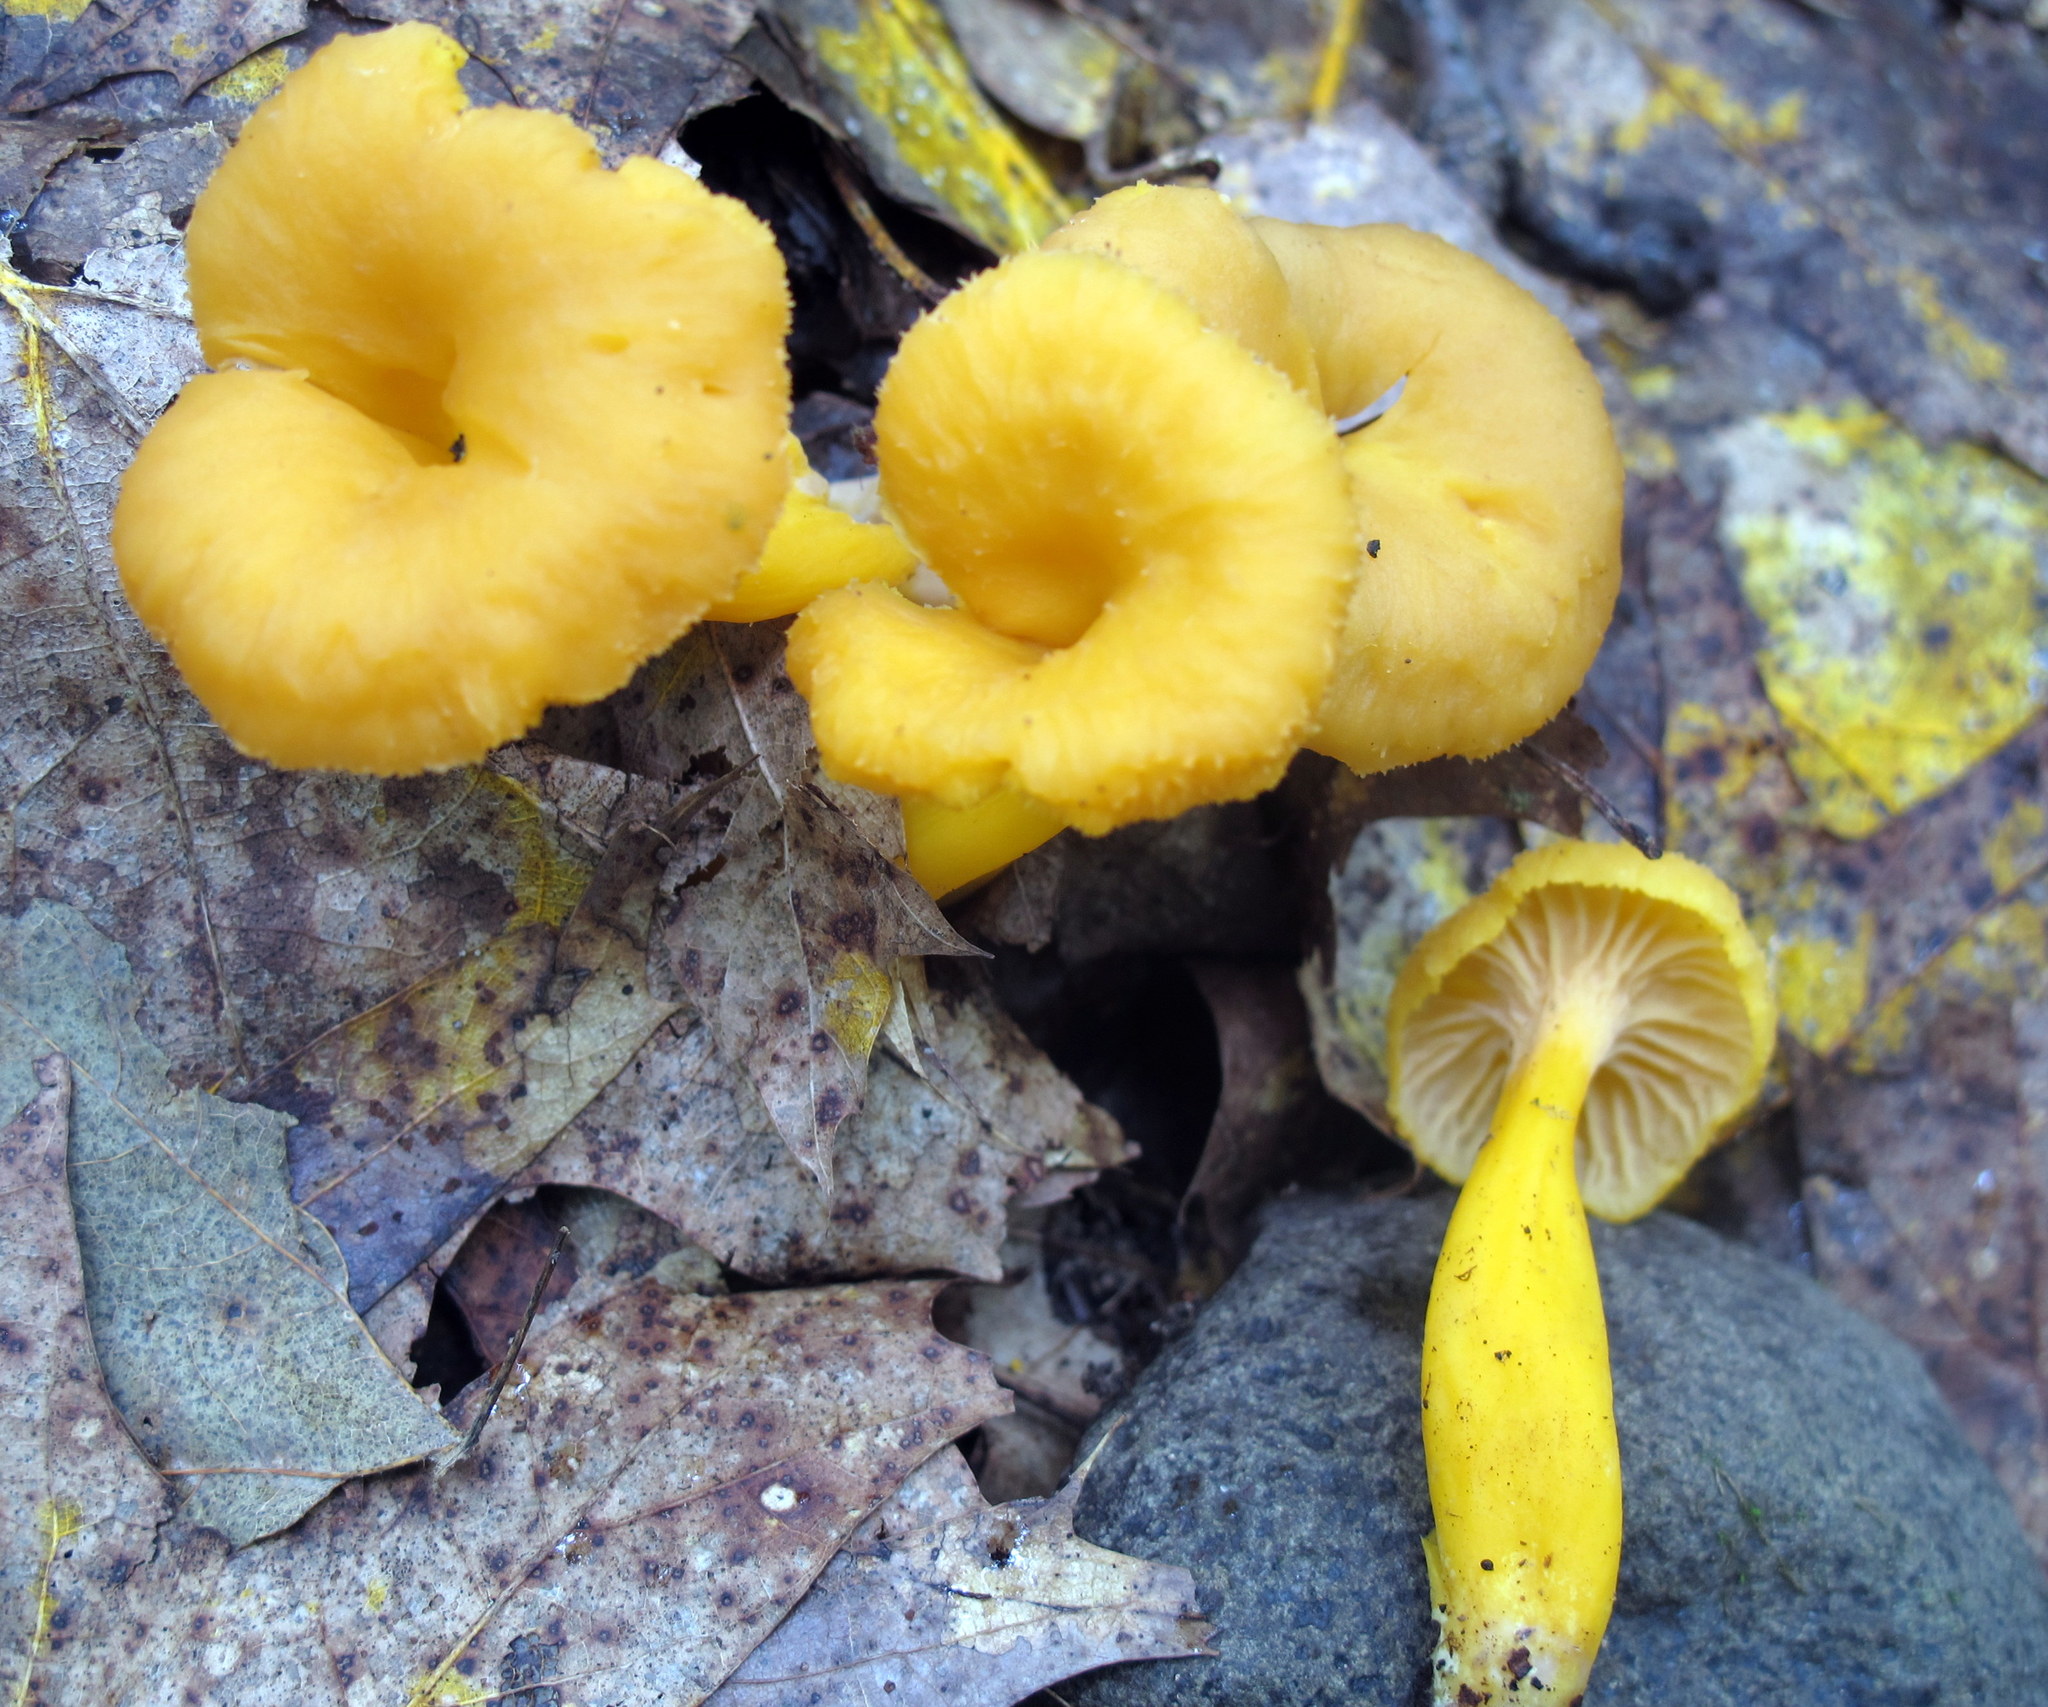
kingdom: Fungi
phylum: Basidiomycota
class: Agaricomycetes
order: Cantharellales
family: Hydnaceae
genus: Craterellus
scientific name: Craterellus ignicolor
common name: Flame chanterelle
